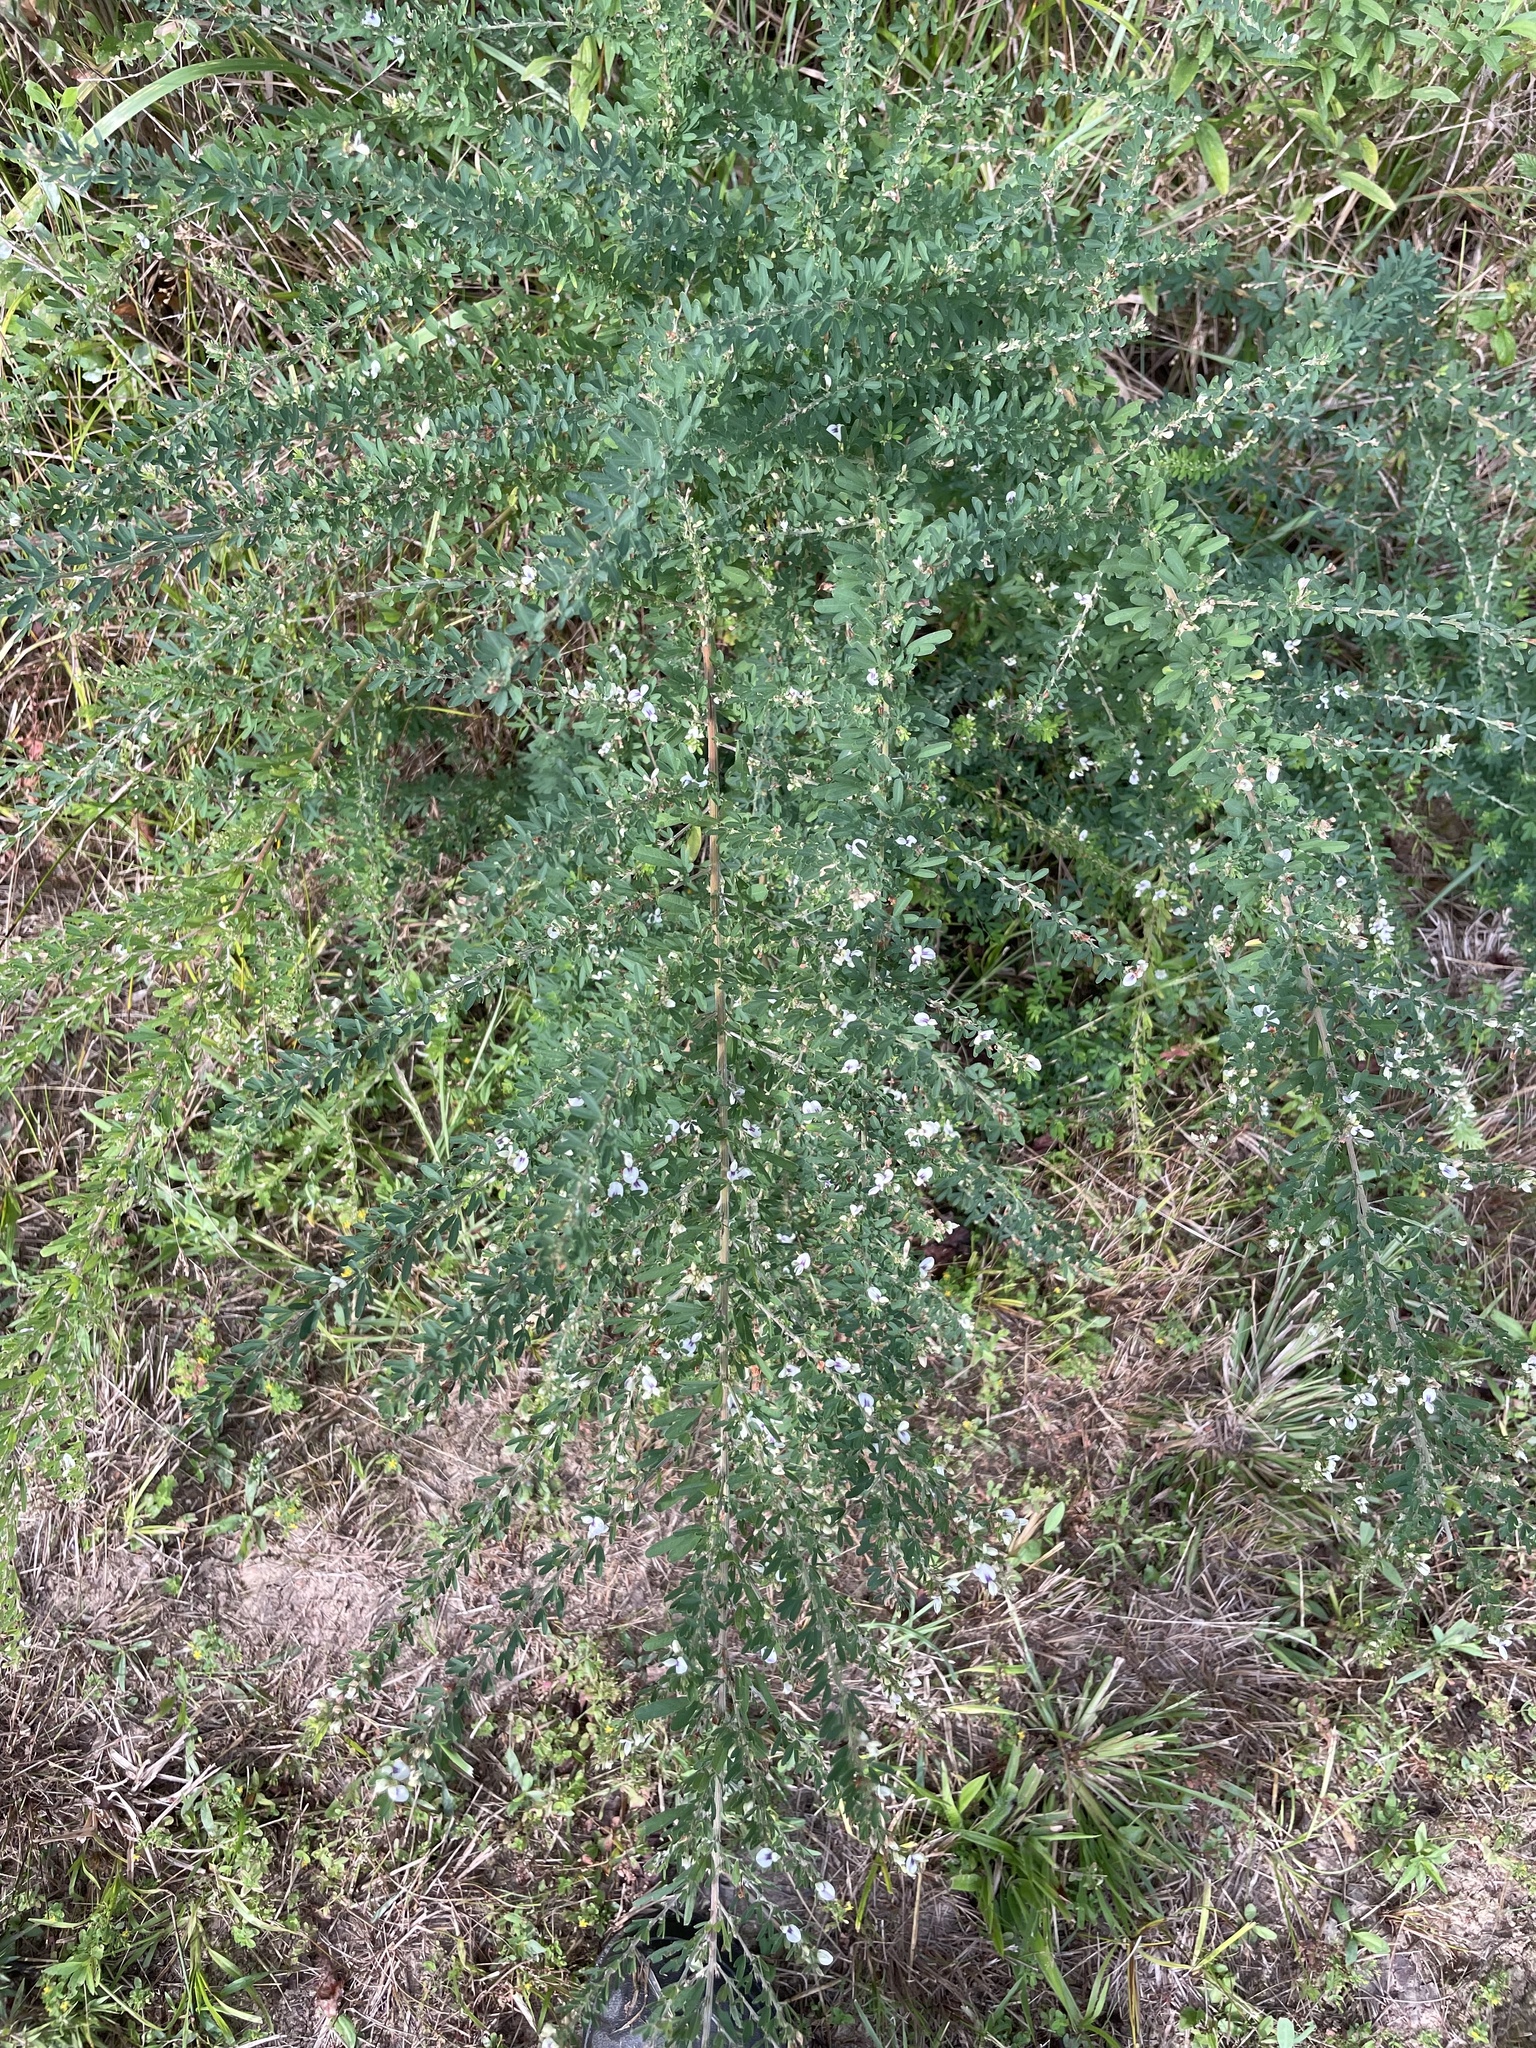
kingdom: Plantae
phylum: Tracheophyta
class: Magnoliopsida
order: Fabales
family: Fabaceae
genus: Lespedeza
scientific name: Lespedeza cuneata
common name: Chinese bush-clover
